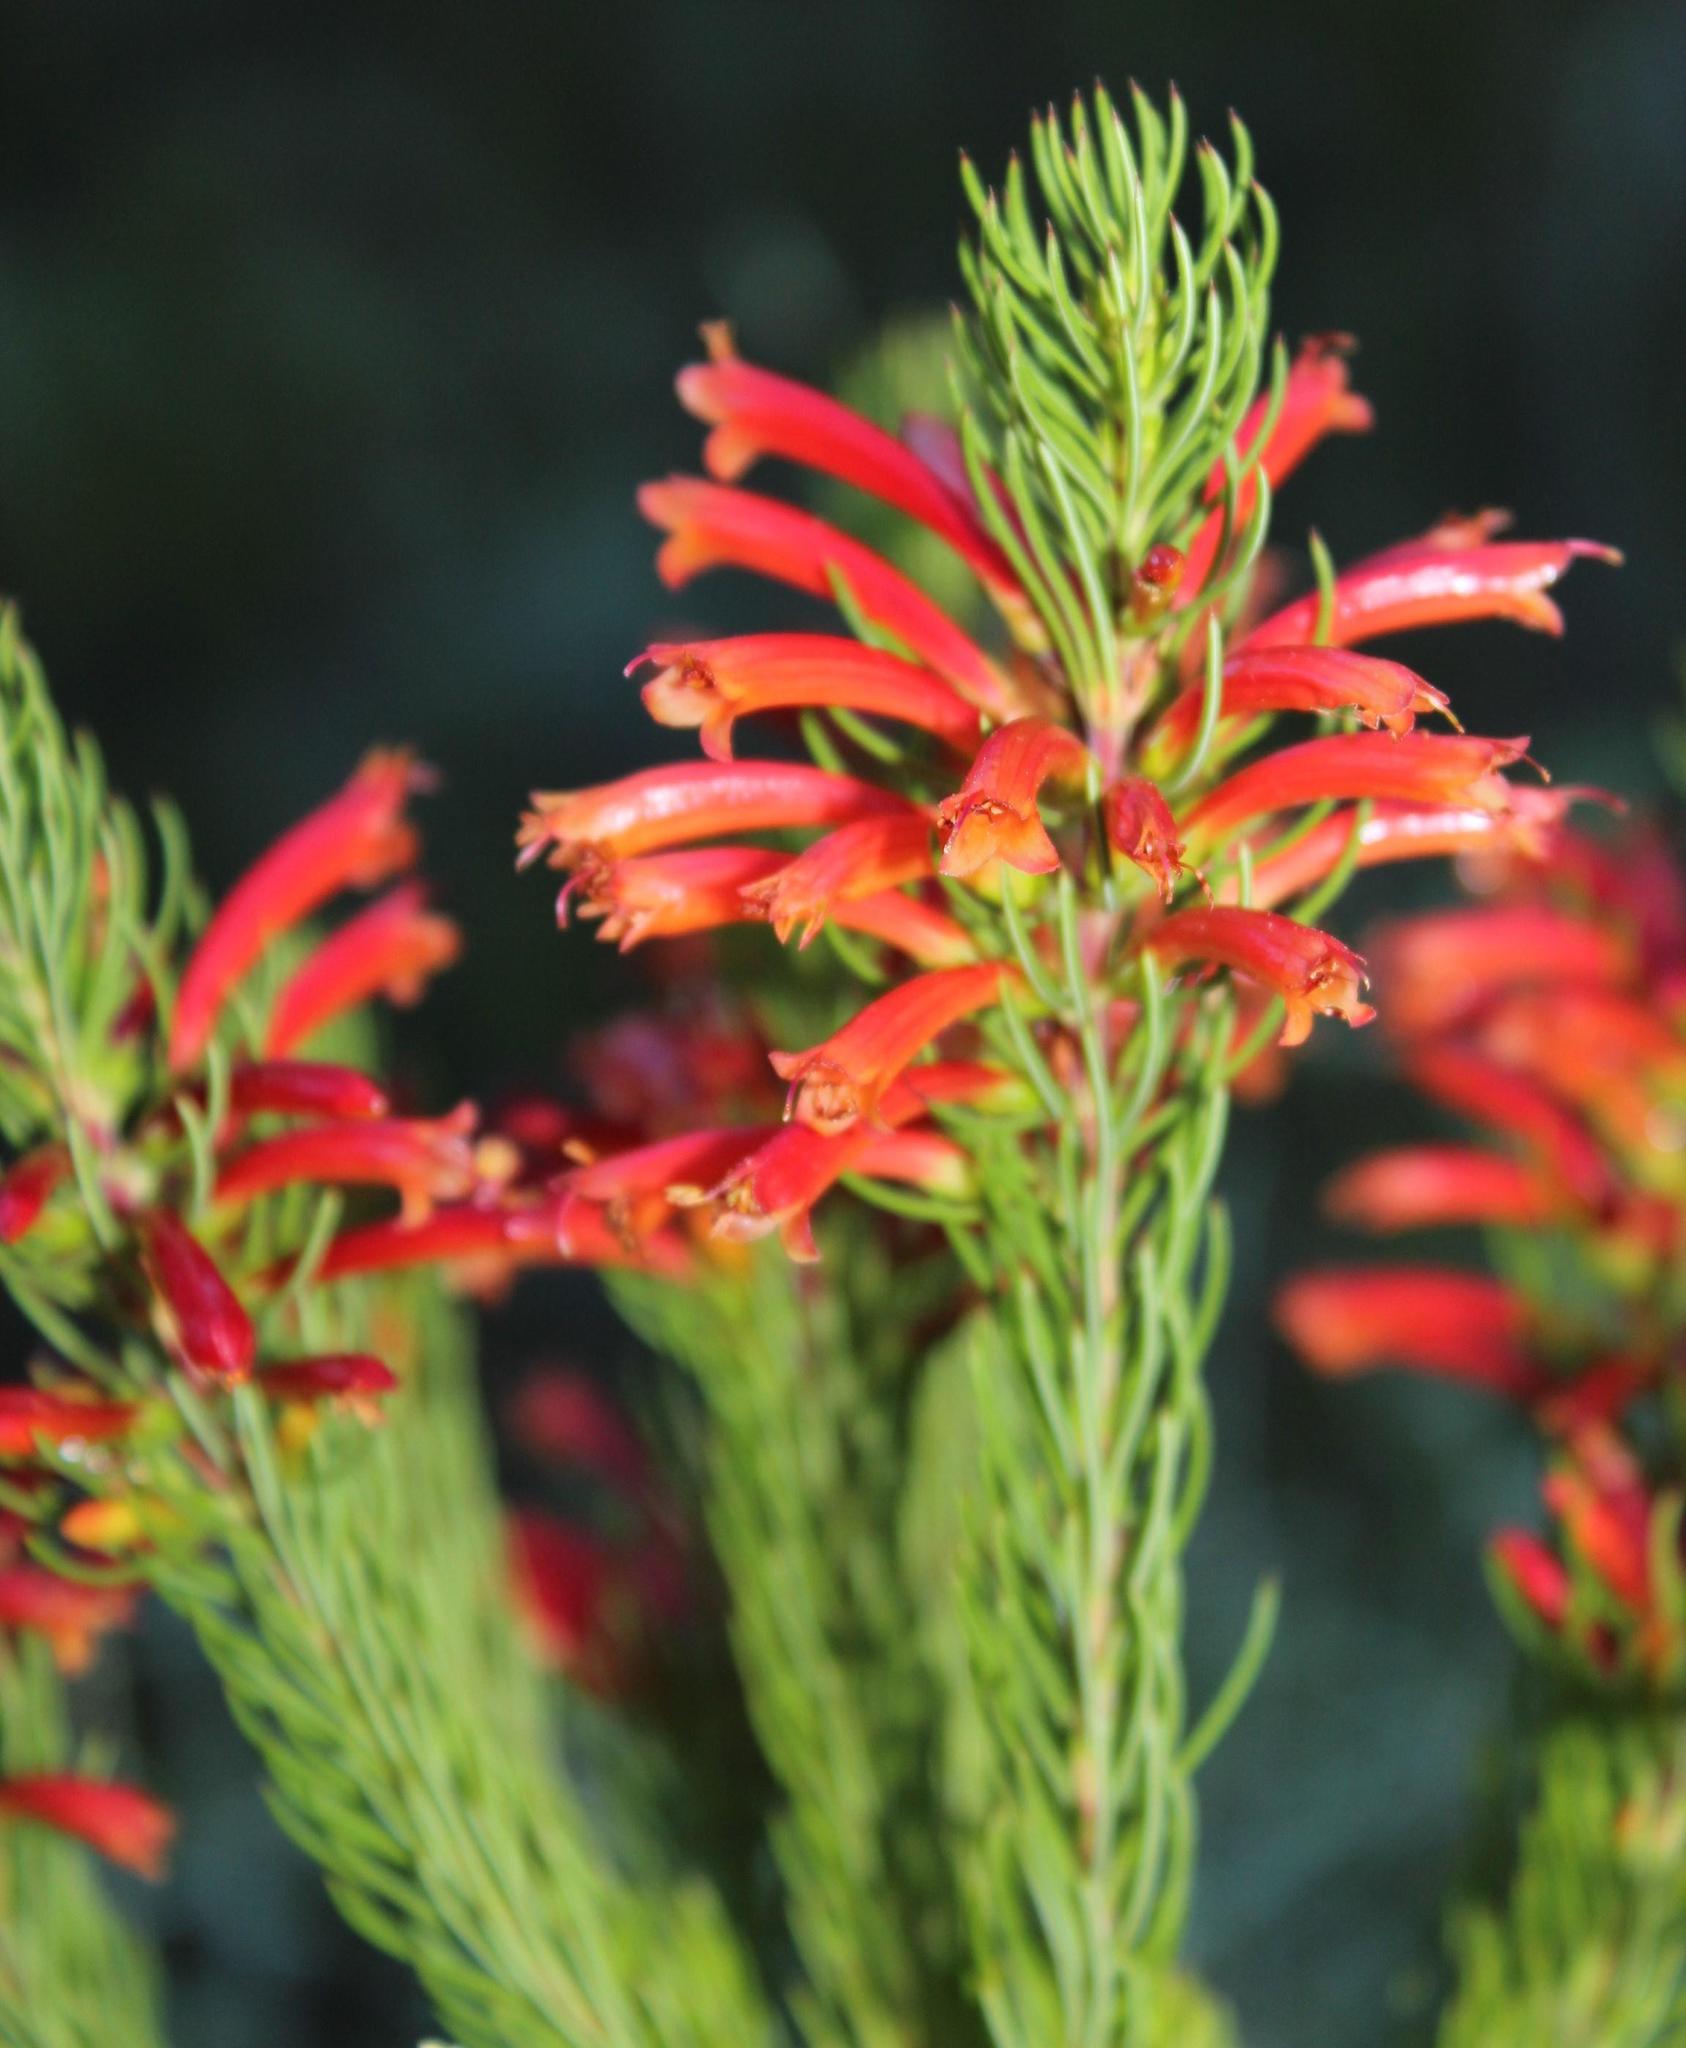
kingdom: Plantae
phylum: Tracheophyta
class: Magnoliopsida
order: Ericales
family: Ericaceae
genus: Erica
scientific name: Erica grandiflora
